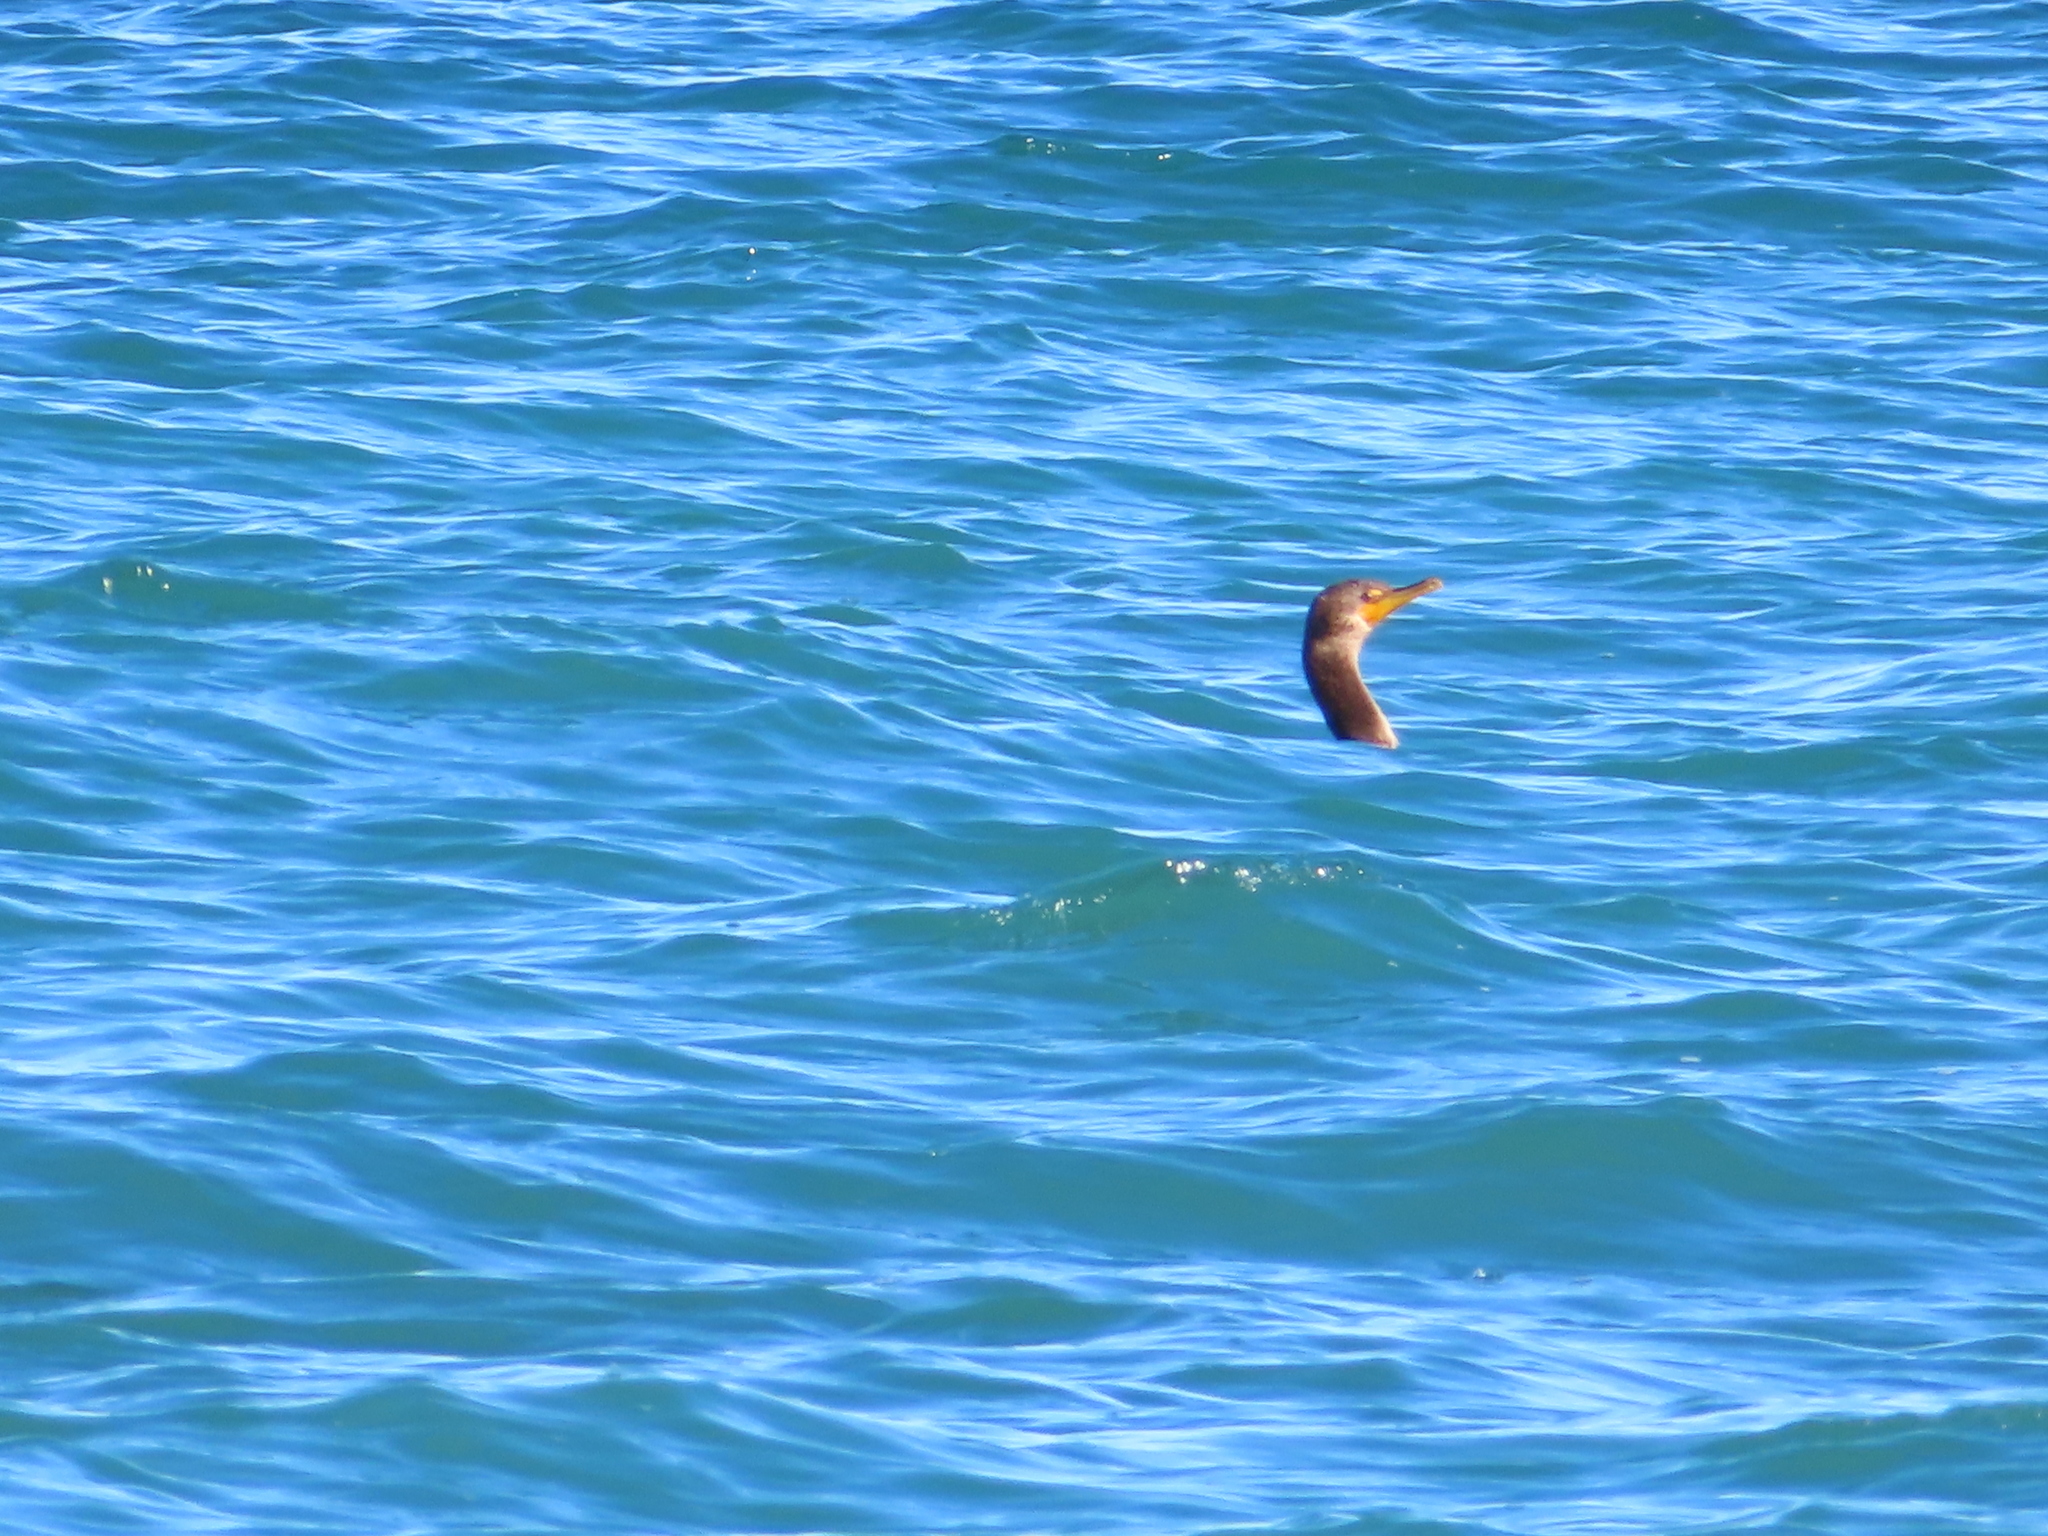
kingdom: Animalia
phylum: Chordata
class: Aves
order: Suliformes
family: Phalacrocoracidae
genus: Phalacrocorax
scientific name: Phalacrocorax auritus
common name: Double-crested cormorant
